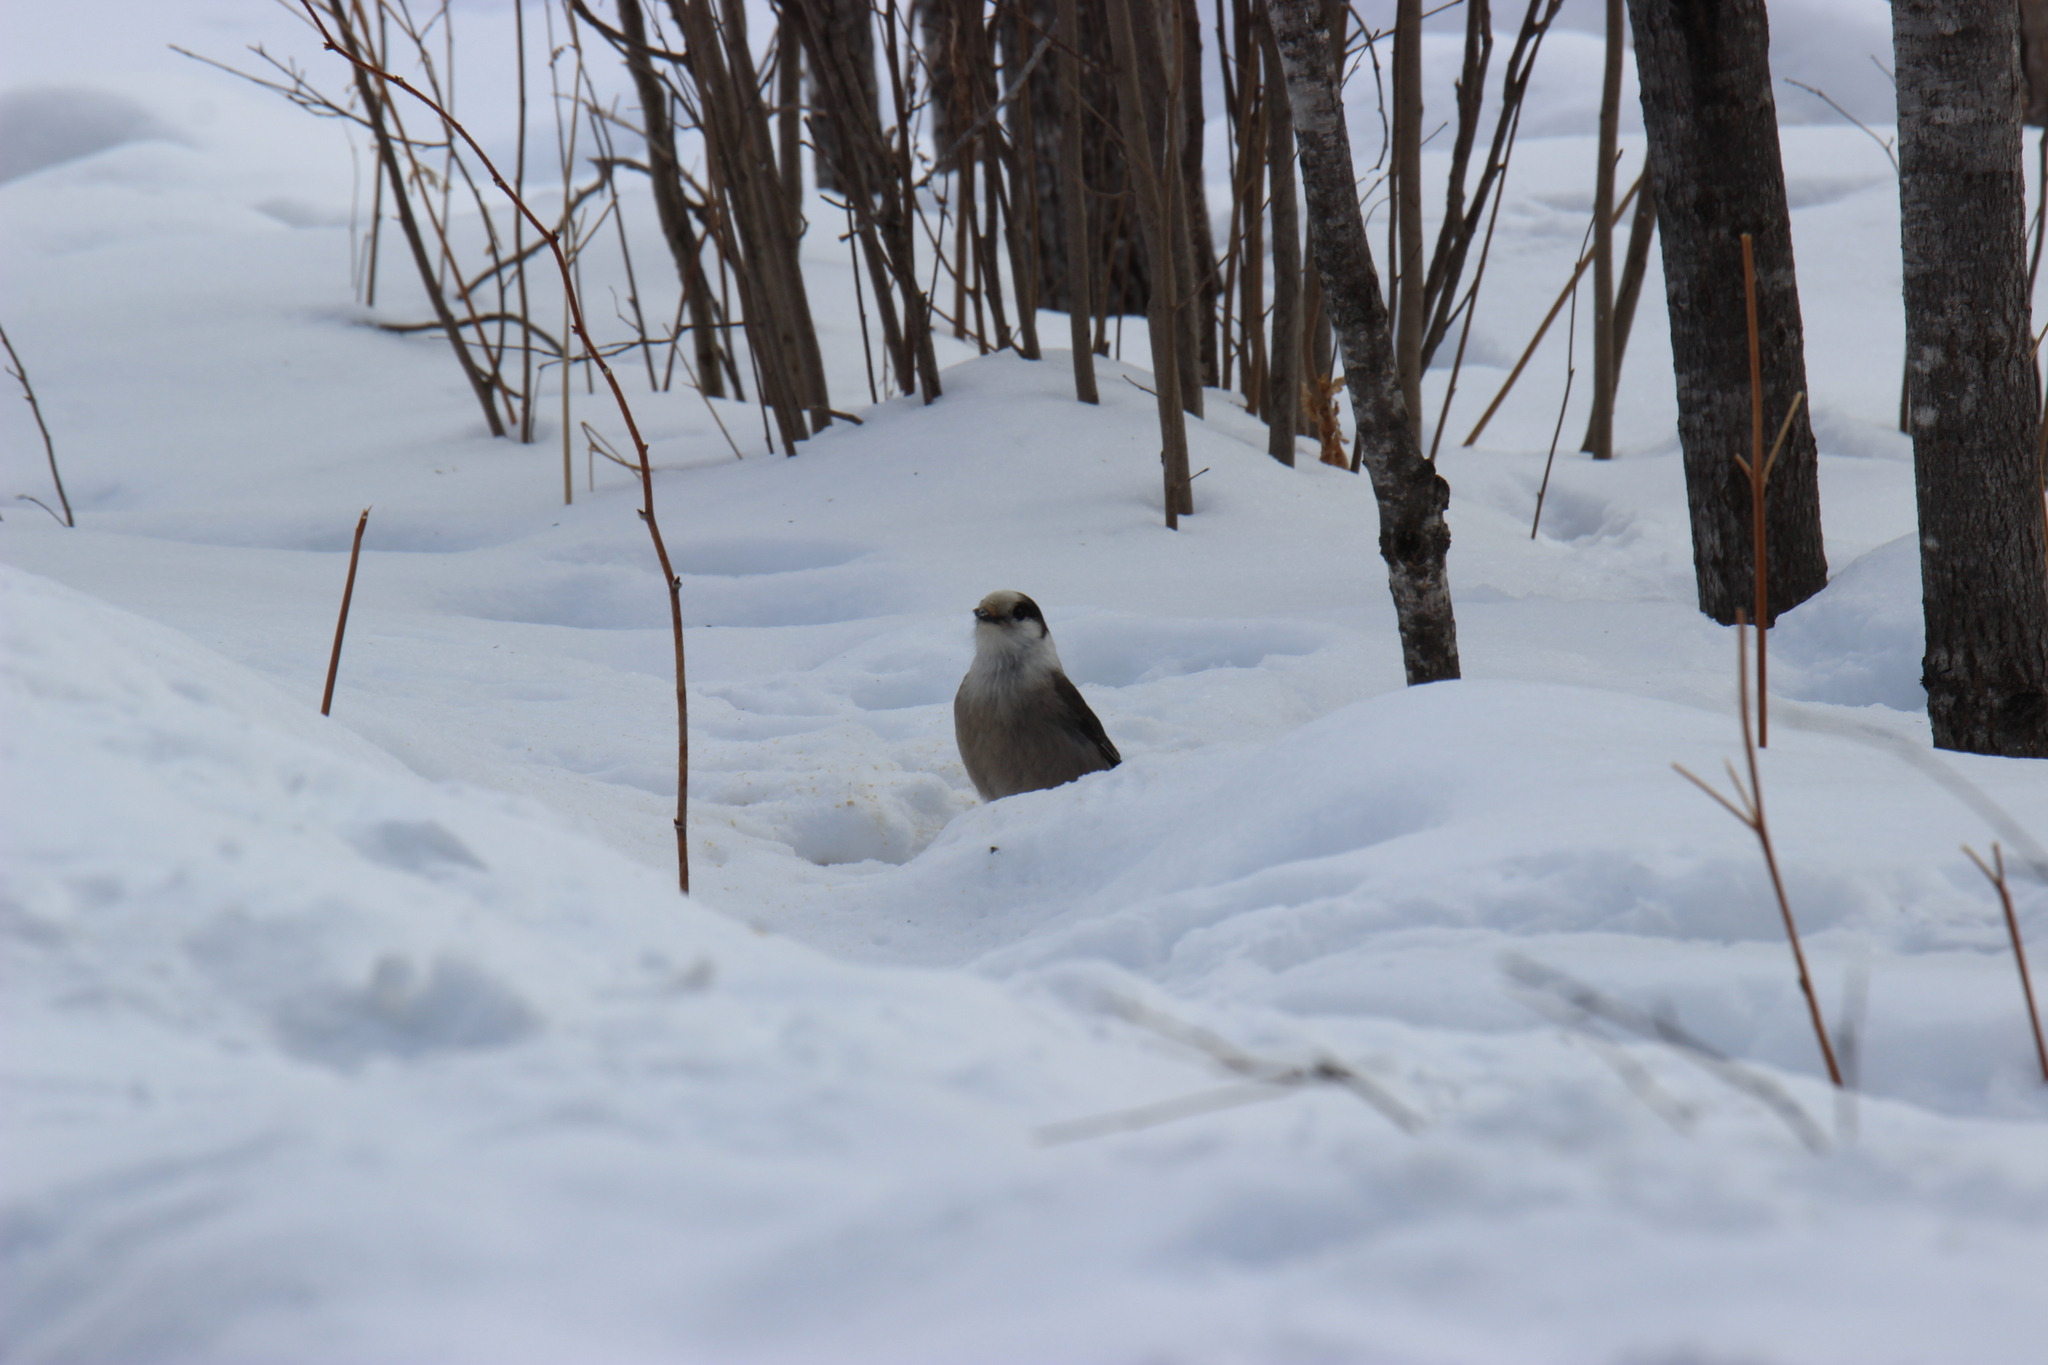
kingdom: Animalia
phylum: Chordata
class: Aves
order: Passeriformes
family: Corvidae
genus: Perisoreus
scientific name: Perisoreus canadensis
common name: Gray jay
